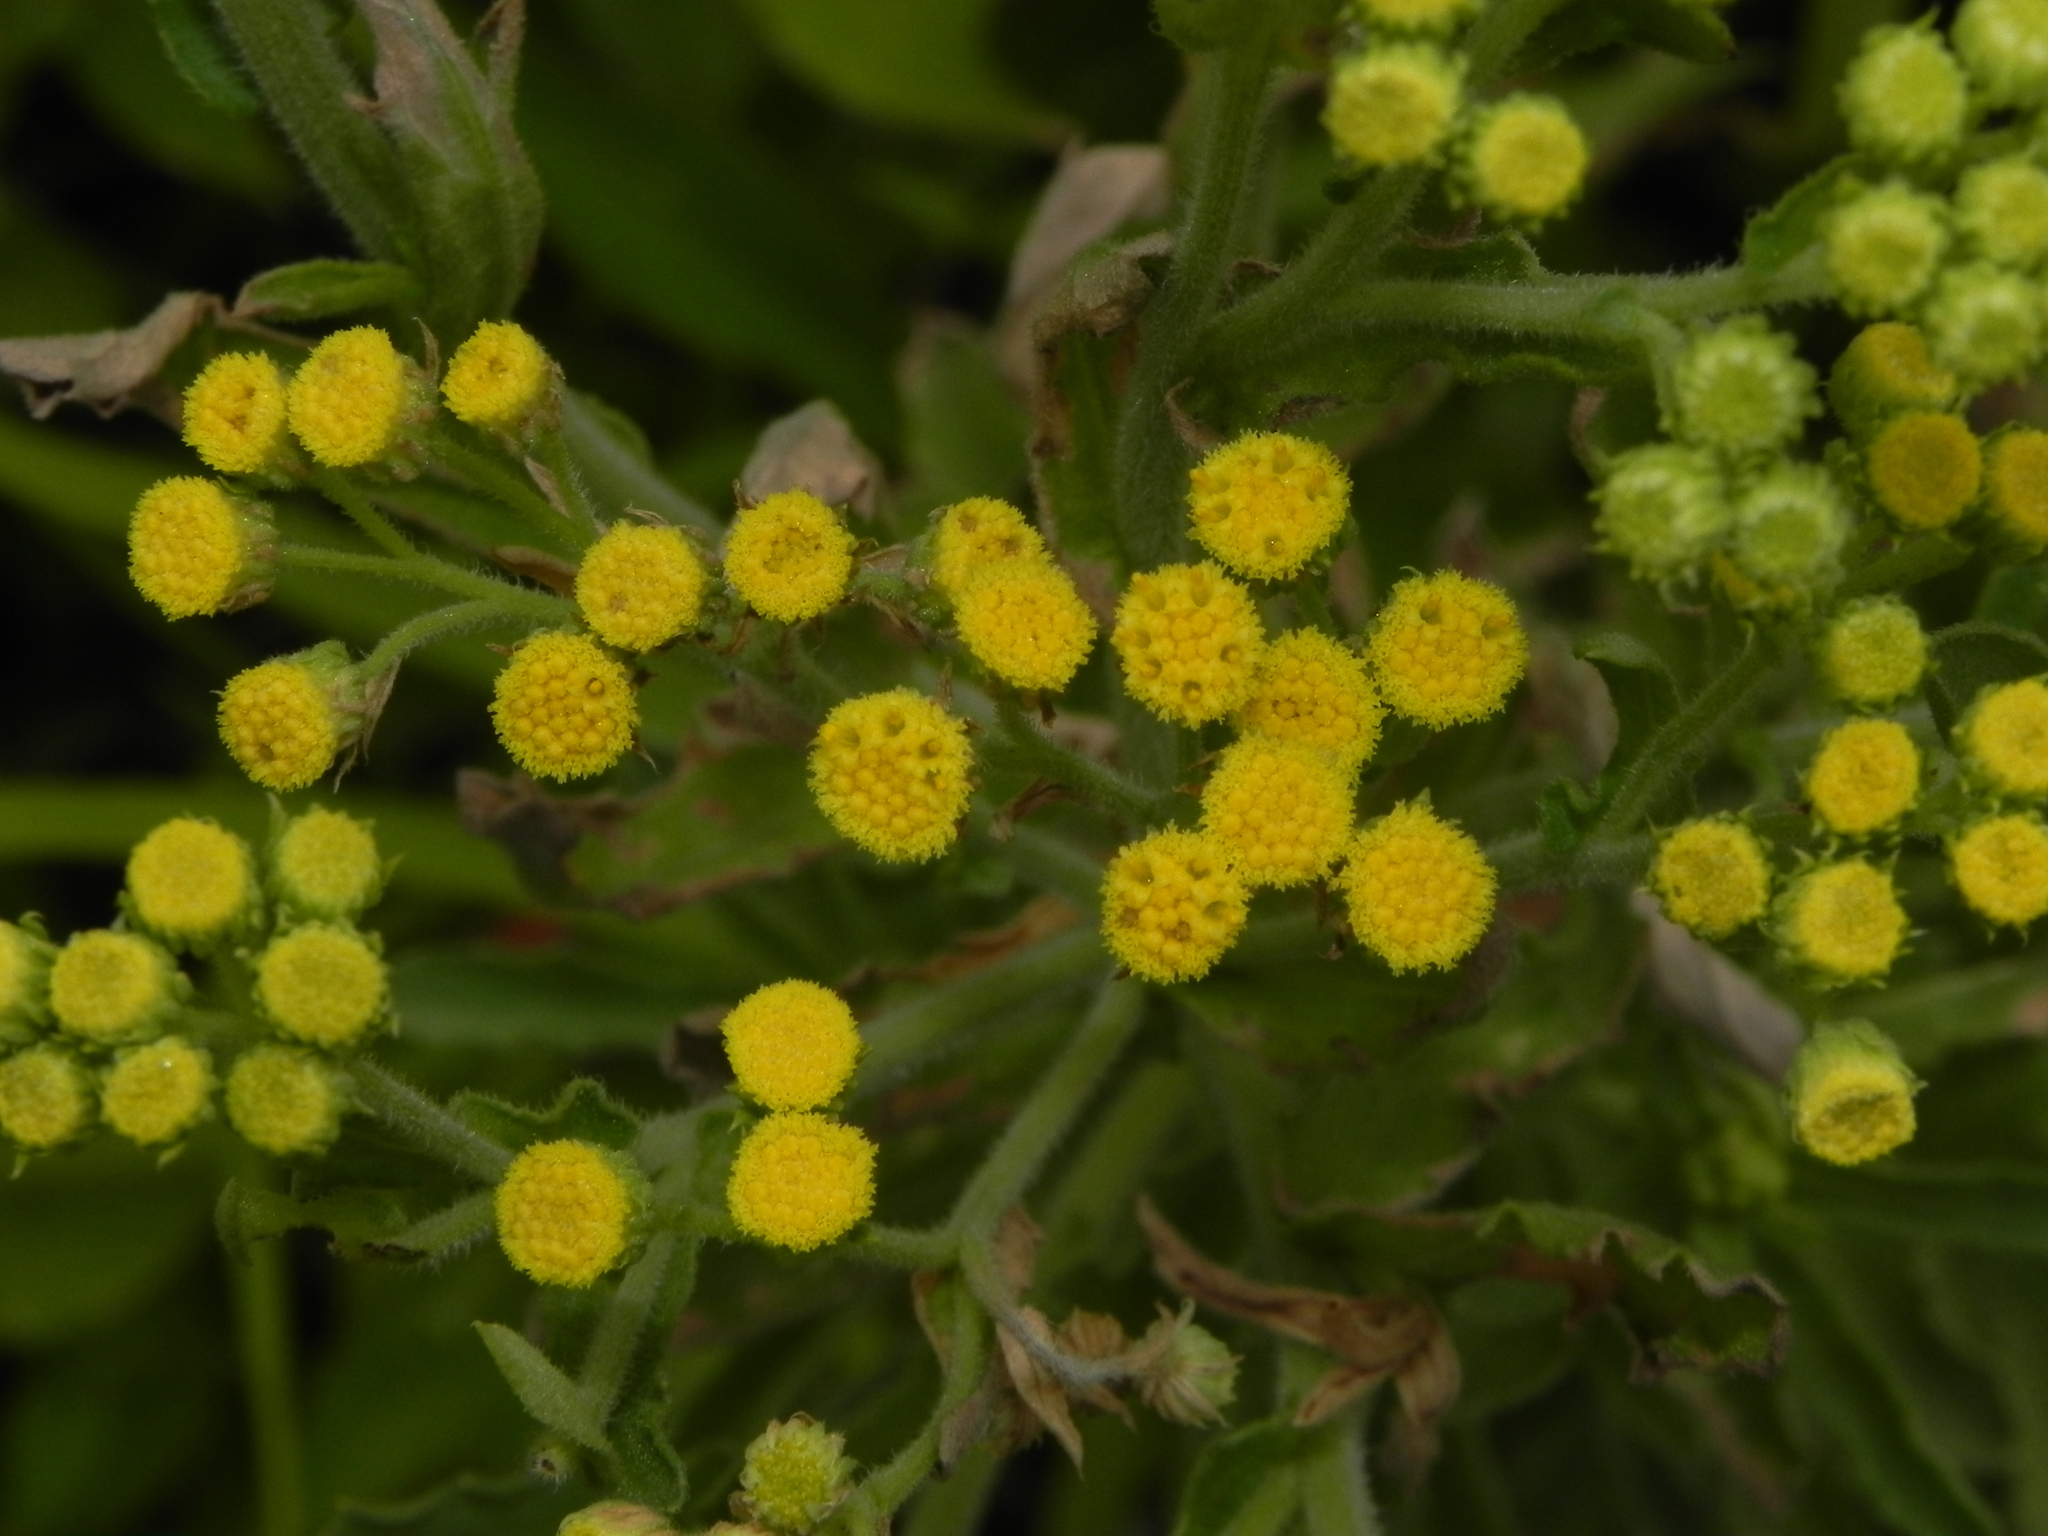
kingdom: Plantae
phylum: Tracheophyta
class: Magnoliopsida
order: Asterales
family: Asteraceae
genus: Nidorella
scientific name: Nidorella triloba
